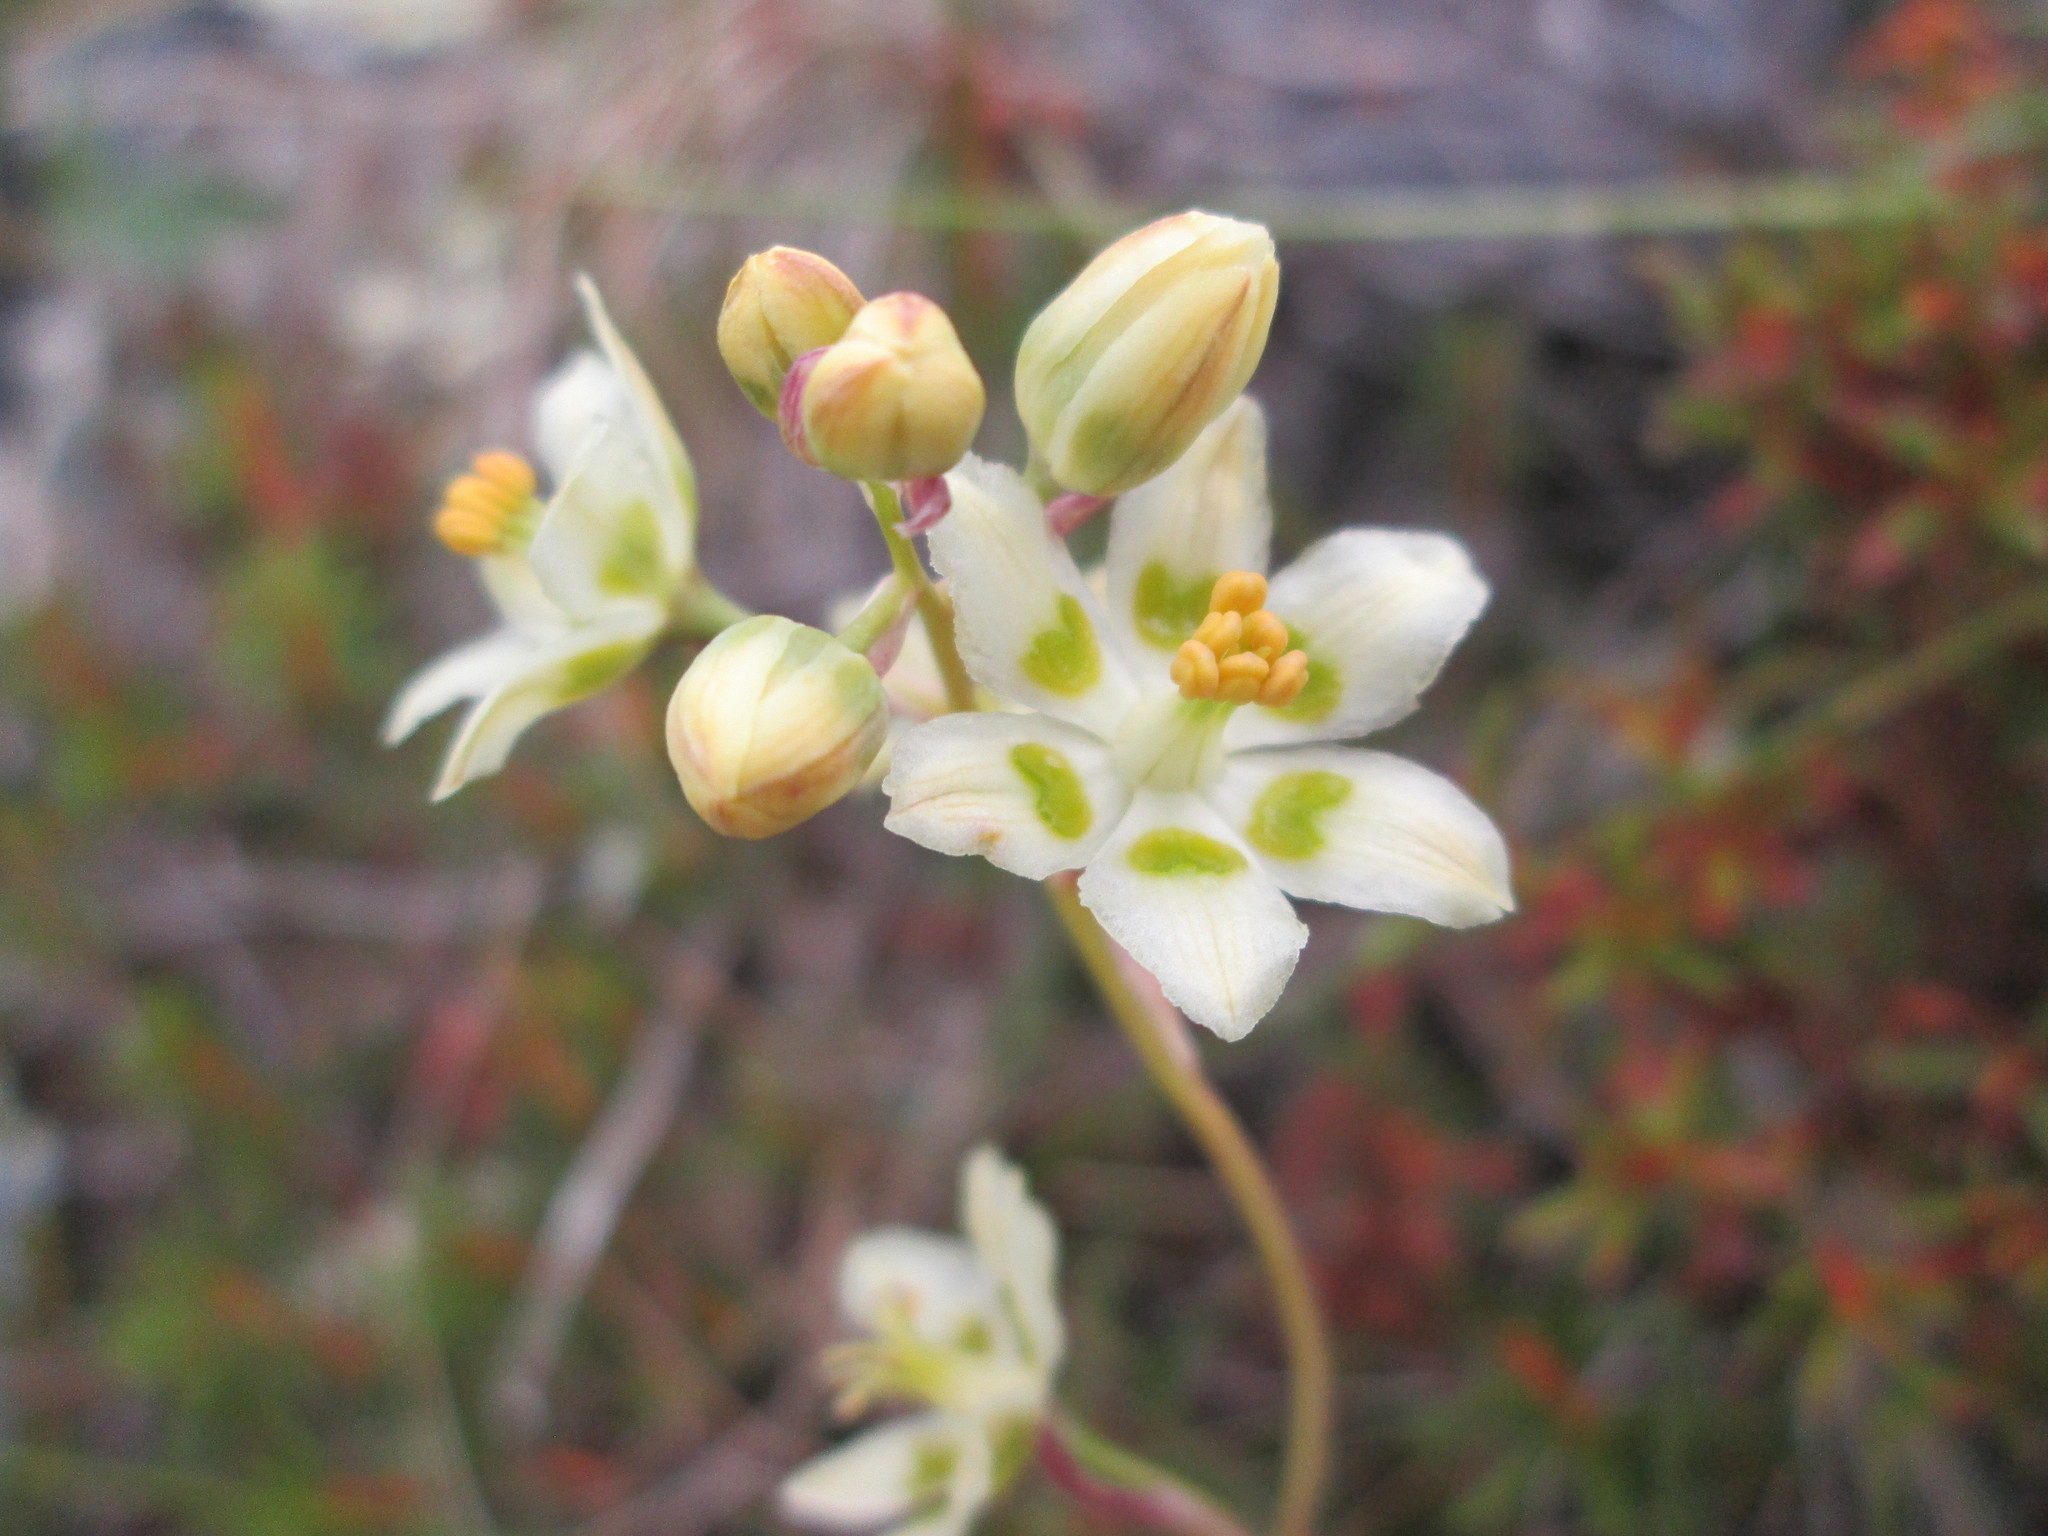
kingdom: Plantae
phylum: Tracheophyta
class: Liliopsida
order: Liliales
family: Melanthiaceae
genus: Anticlea
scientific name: Anticlea elegans
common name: Mountain death camas
